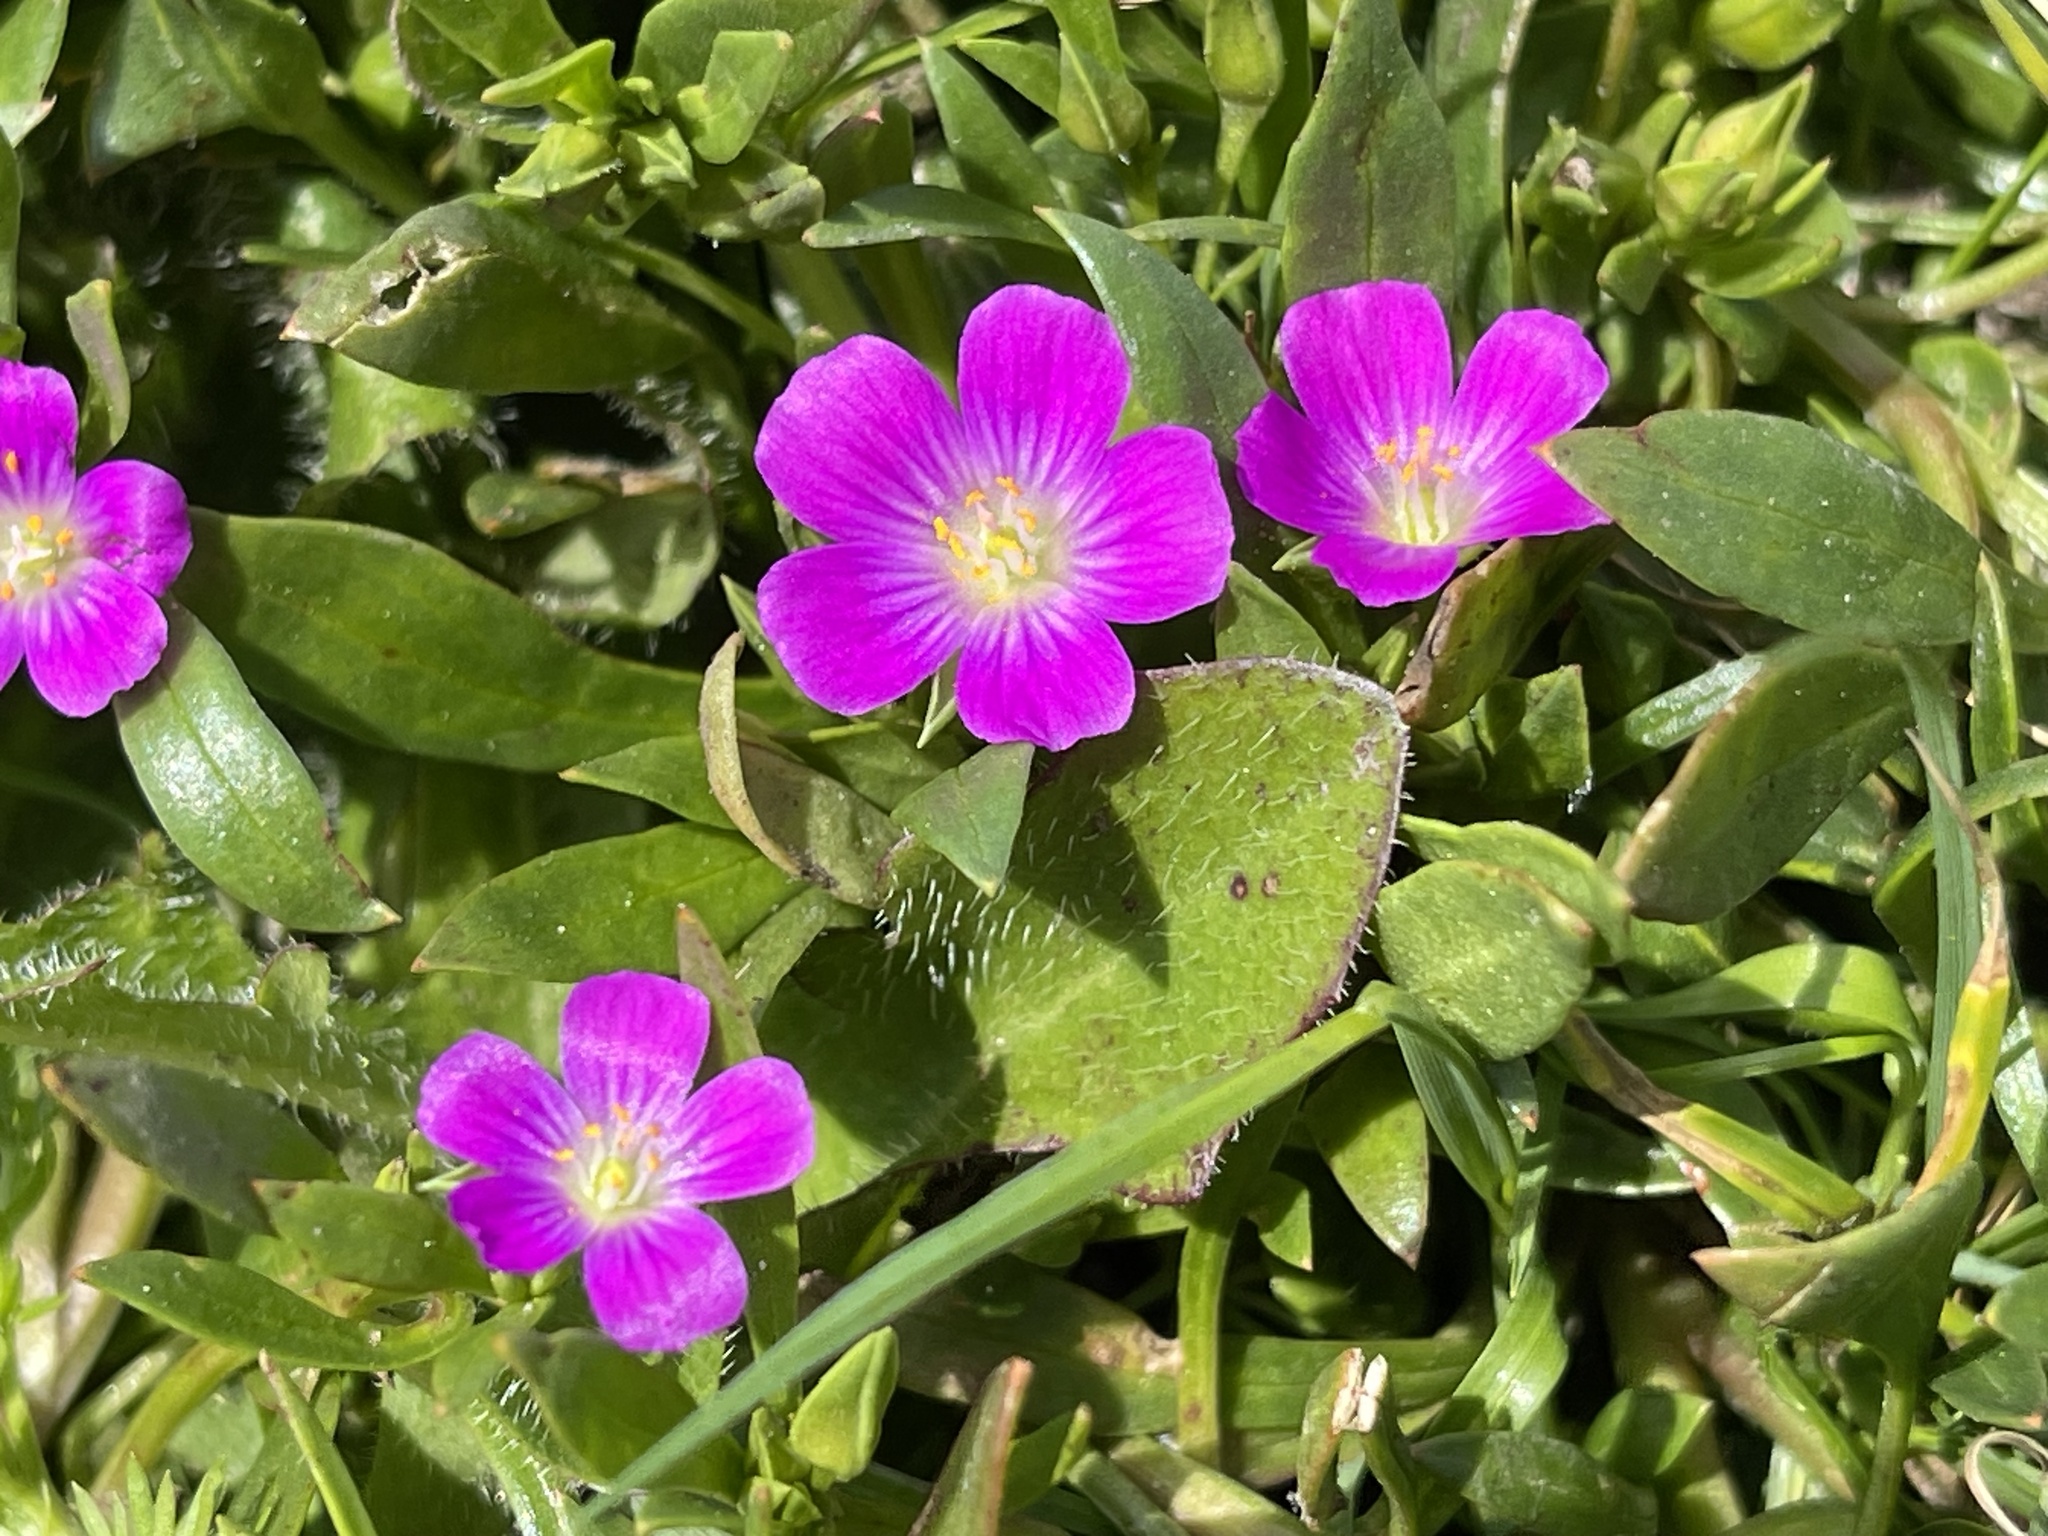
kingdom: Plantae
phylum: Tracheophyta
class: Magnoliopsida
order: Caryophyllales
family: Montiaceae
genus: Calandrinia
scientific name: Calandrinia menziesii
